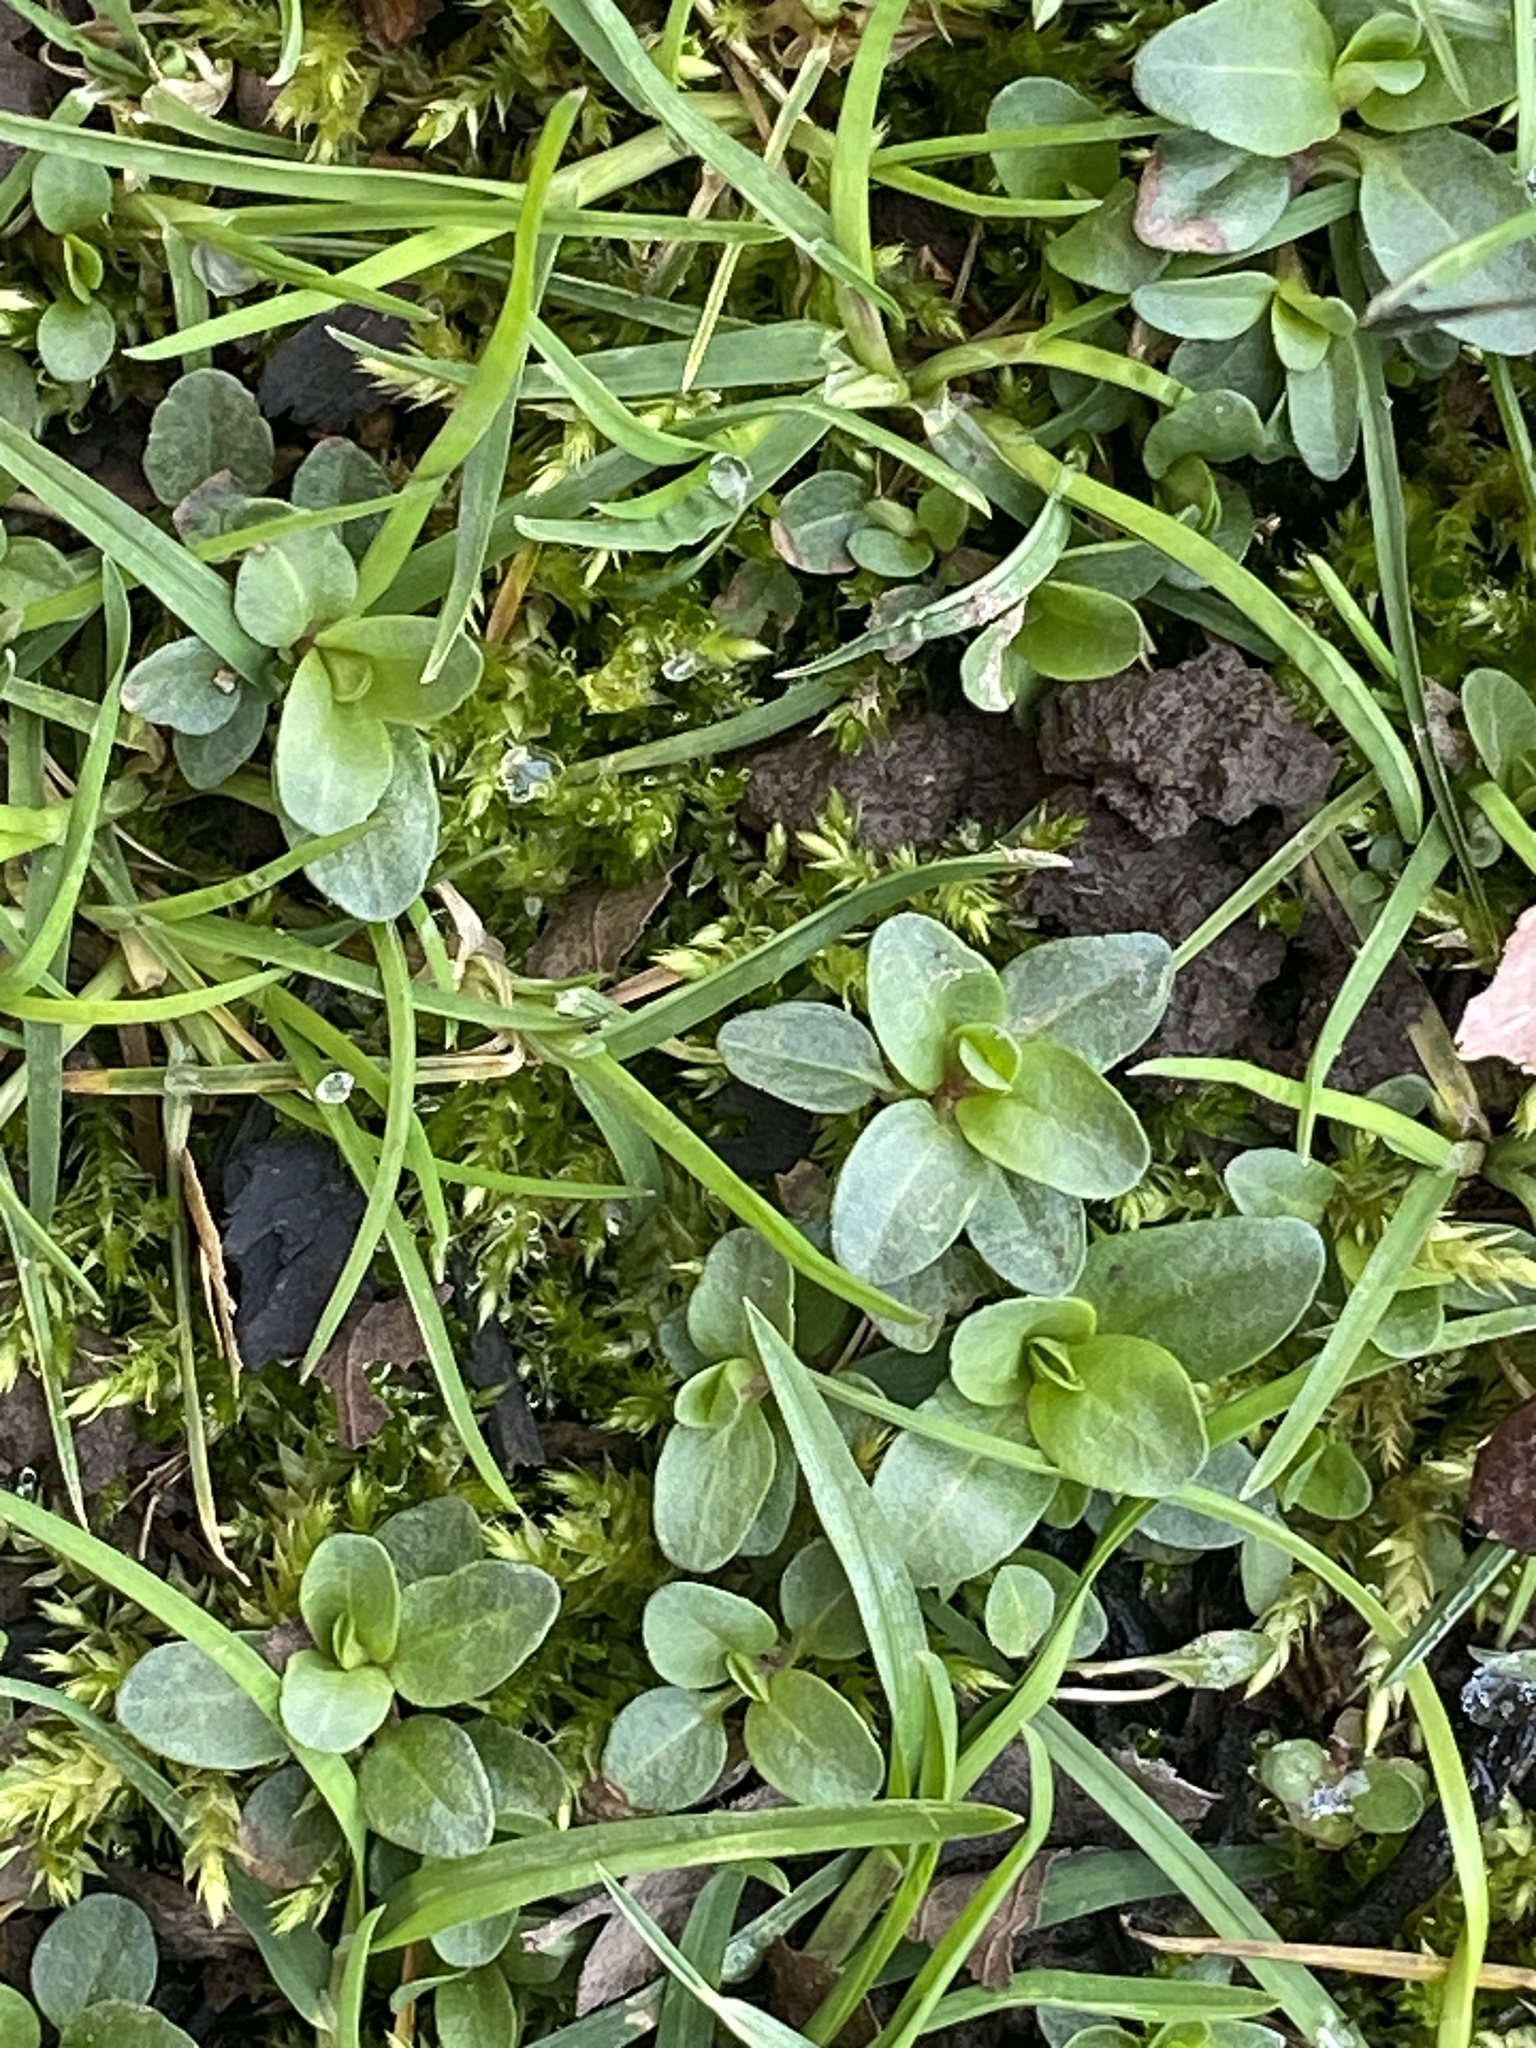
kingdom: Plantae
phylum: Tracheophyta
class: Magnoliopsida
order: Lamiales
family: Plantaginaceae
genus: Veronica
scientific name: Veronica serpyllifolia
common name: Thyme-leaved speedwell
